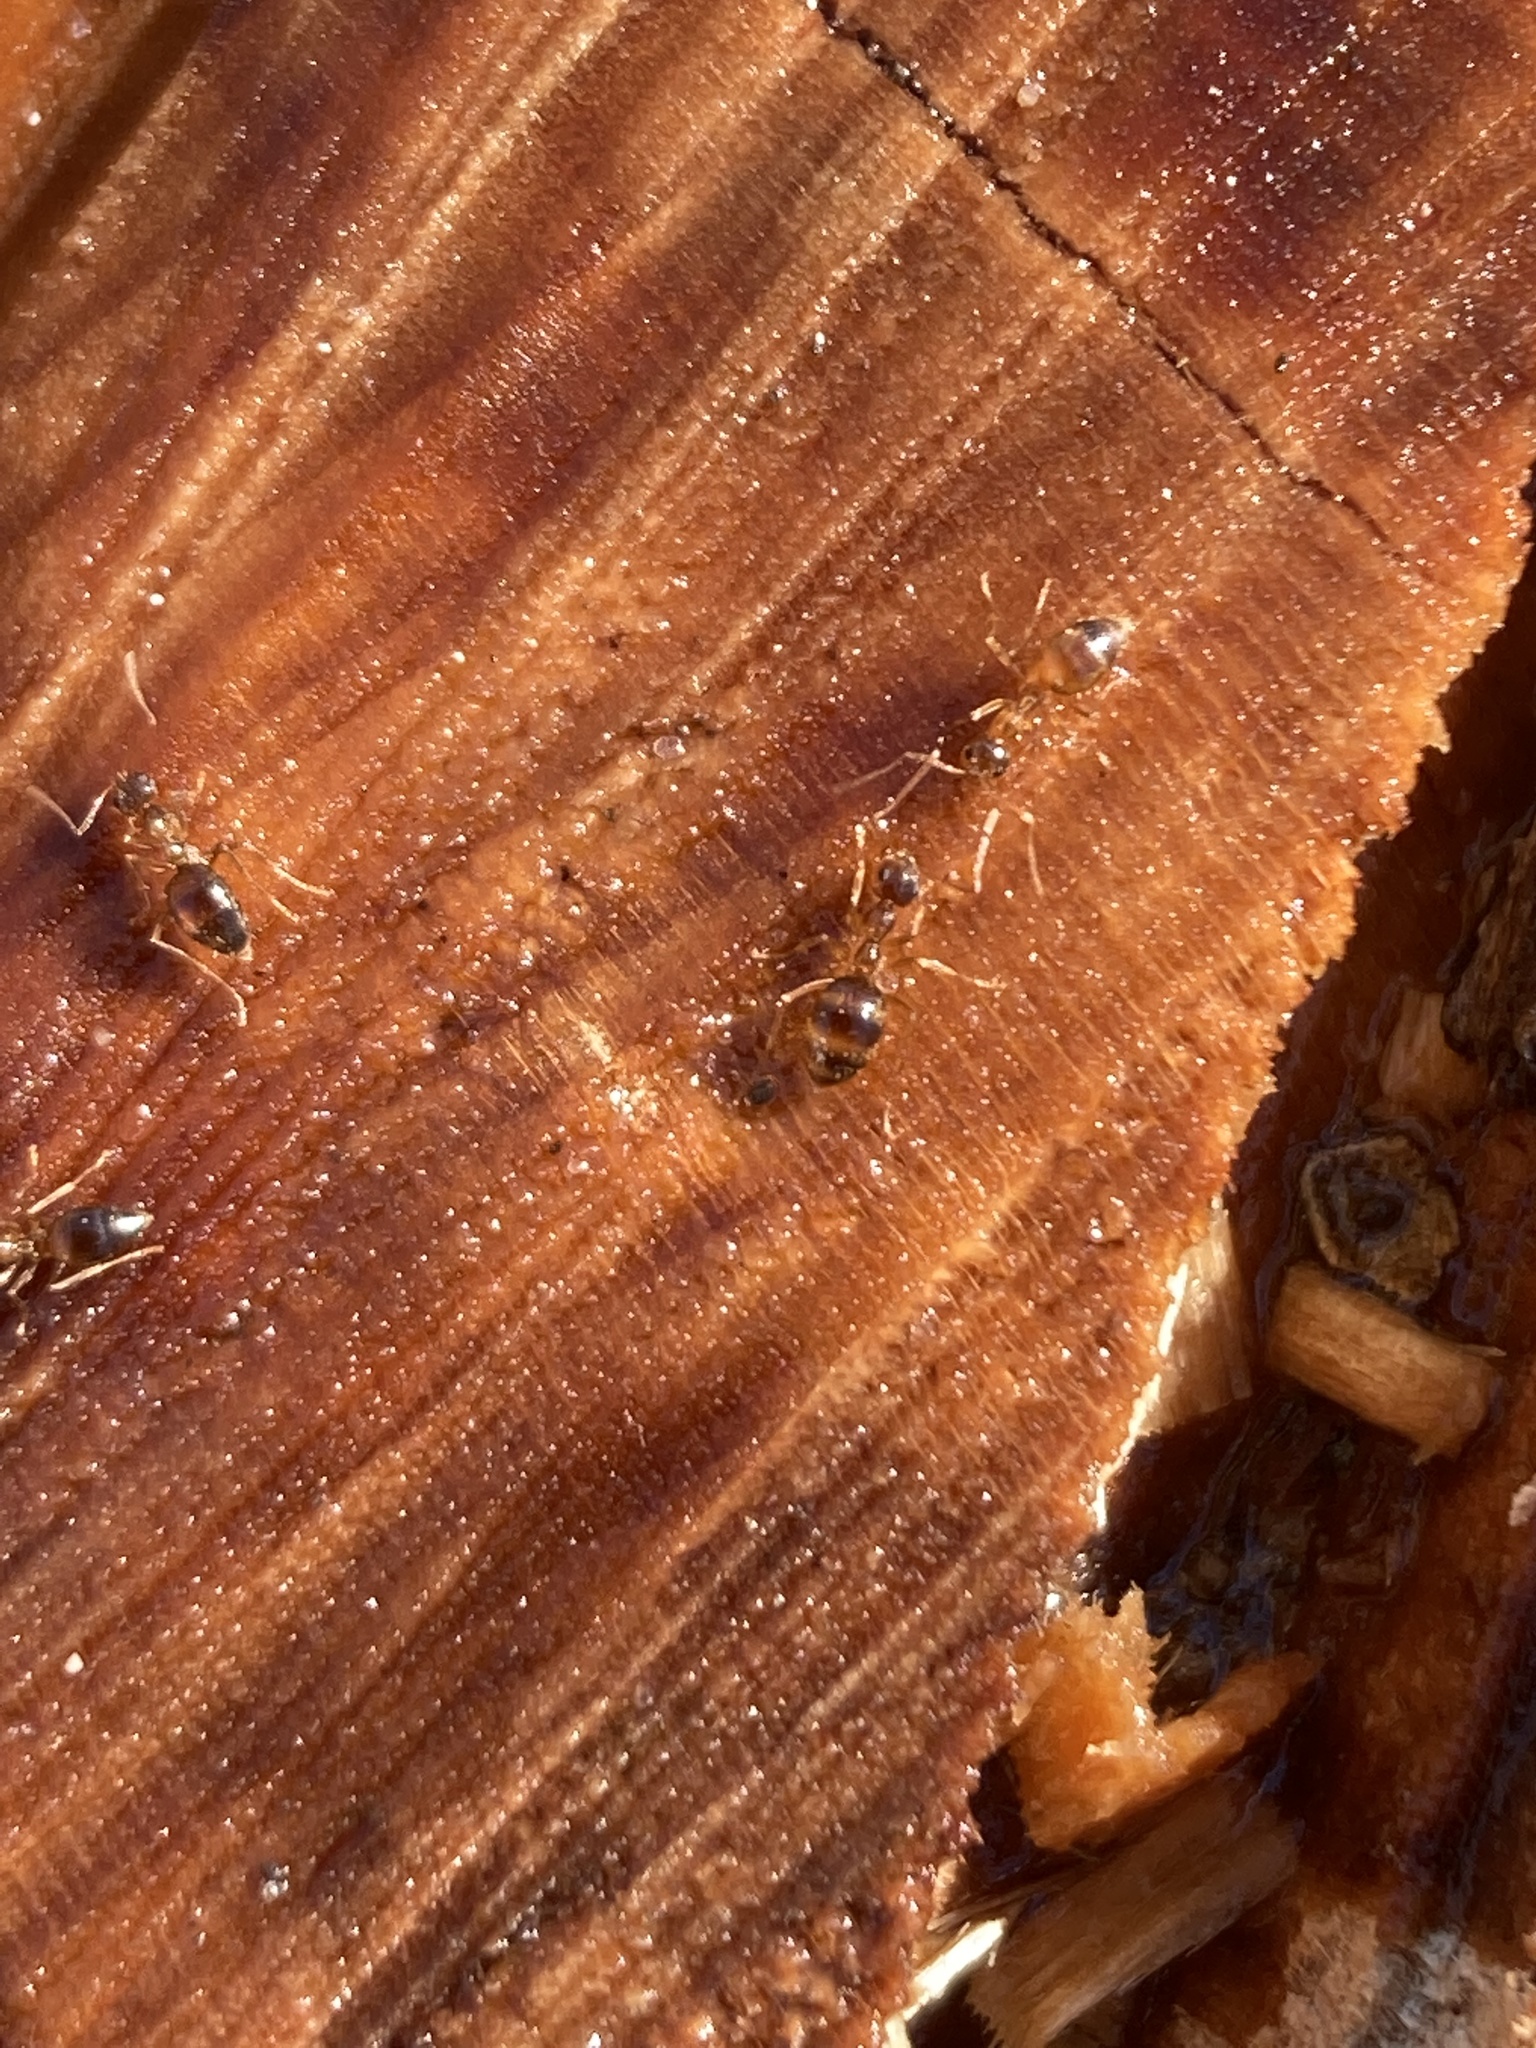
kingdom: Animalia
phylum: Arthropoda
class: Insecta
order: Hymenoptera
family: Formicidae
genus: Prenolepis
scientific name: Prenolepis imparis
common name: Small honey ant
